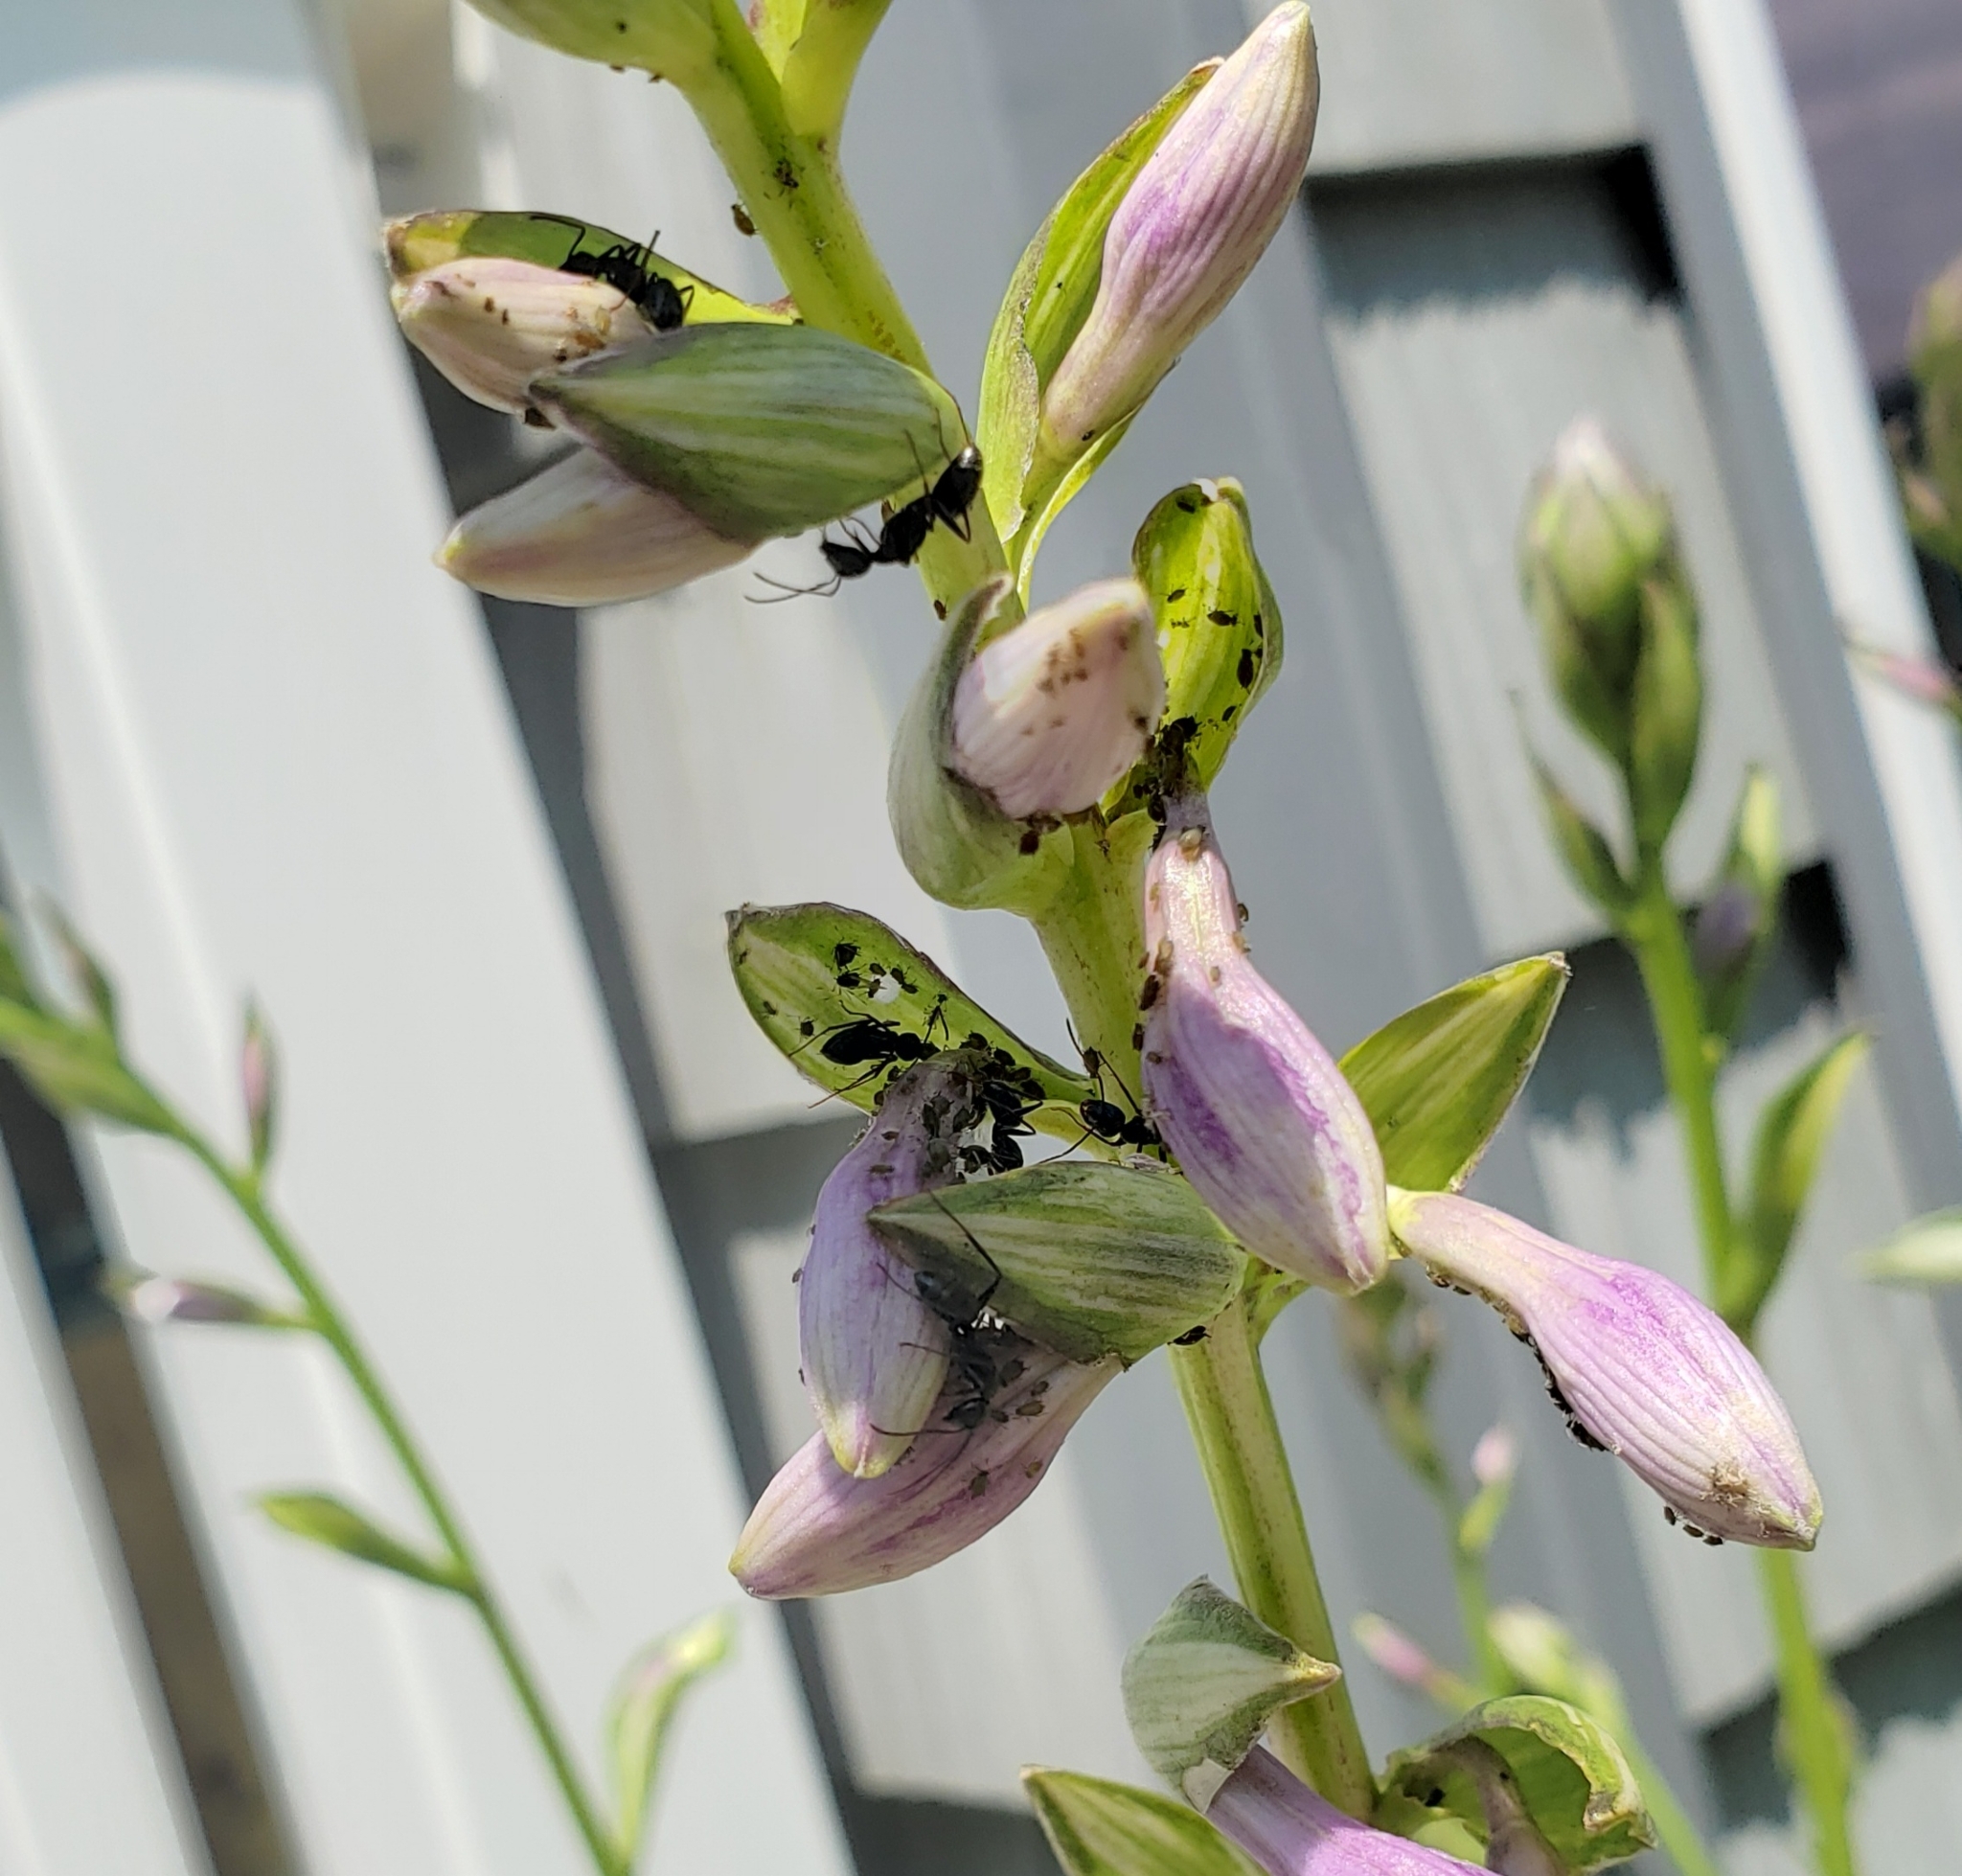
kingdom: Animalia
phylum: Arthropoda
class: Insecta
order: Hymenoptera
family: Formicidae
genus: Camponotus
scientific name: Camponotus pennsylvanicus
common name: Black carpenter ant
